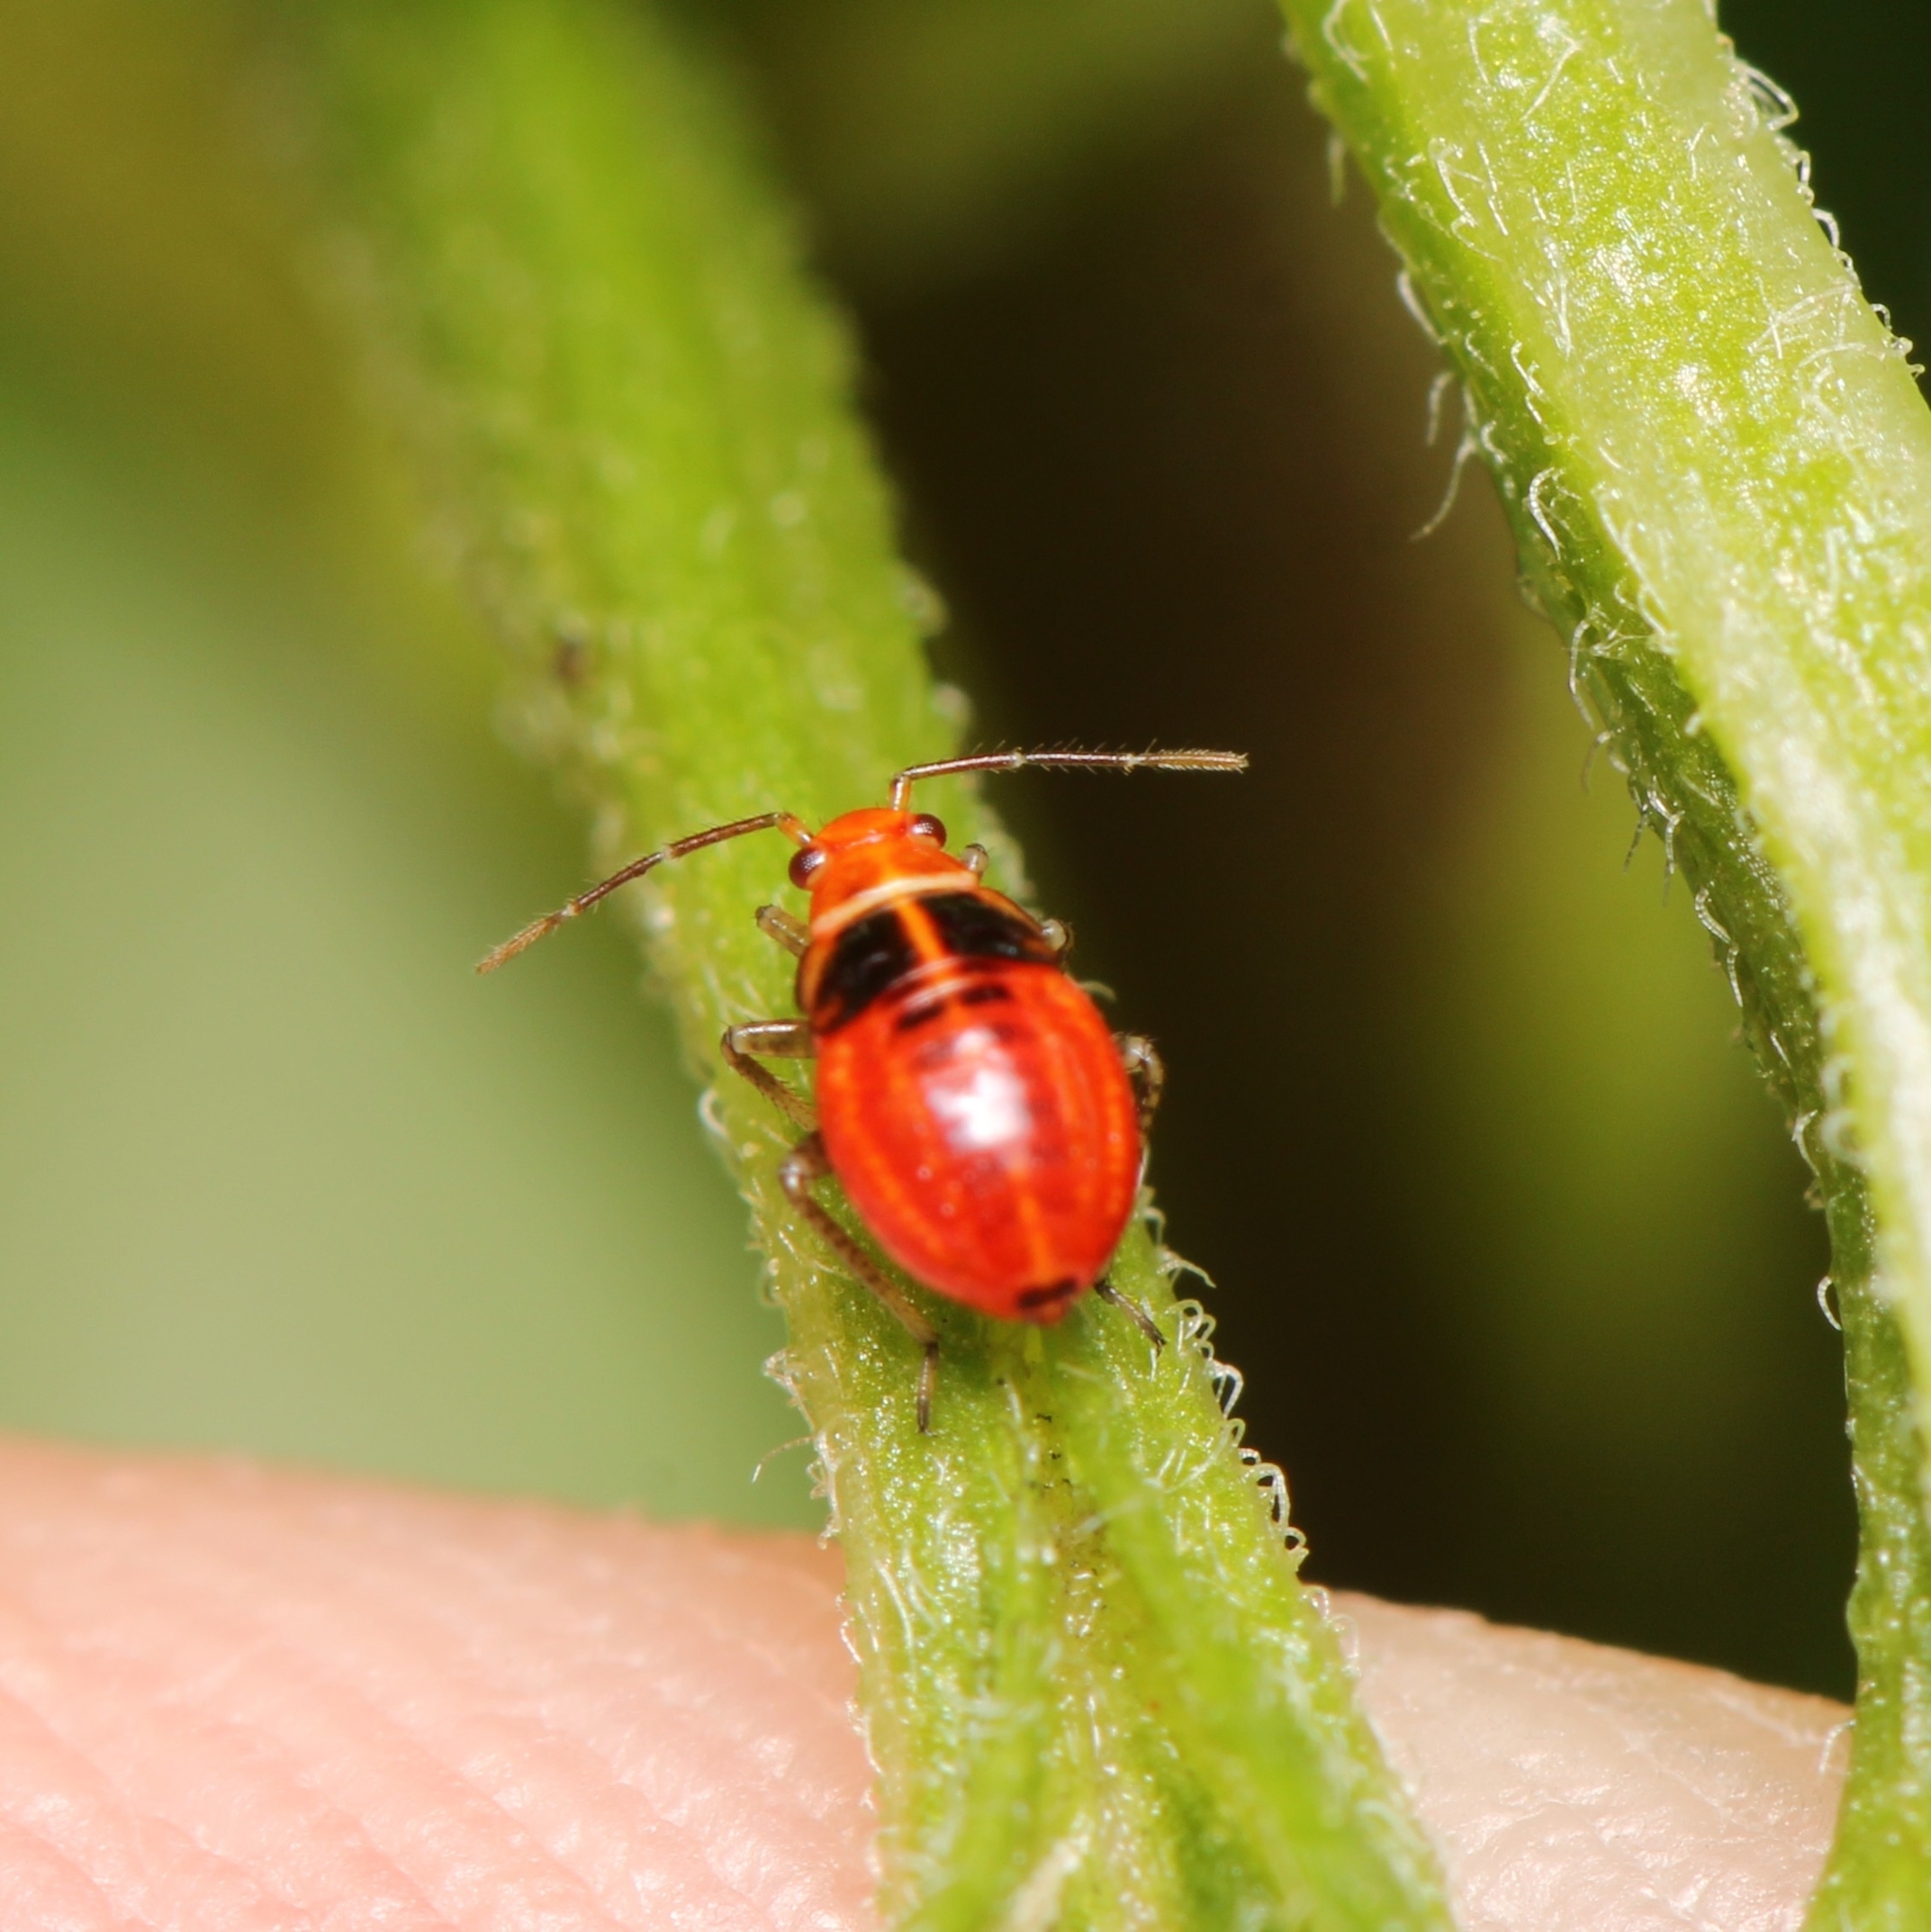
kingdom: Animalia
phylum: Arthropoda
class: Insecta
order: Hemiptera
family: Miridae
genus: Poecilocapsus
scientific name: Poecilocapsus lineatus
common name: Four-lined plant bug
